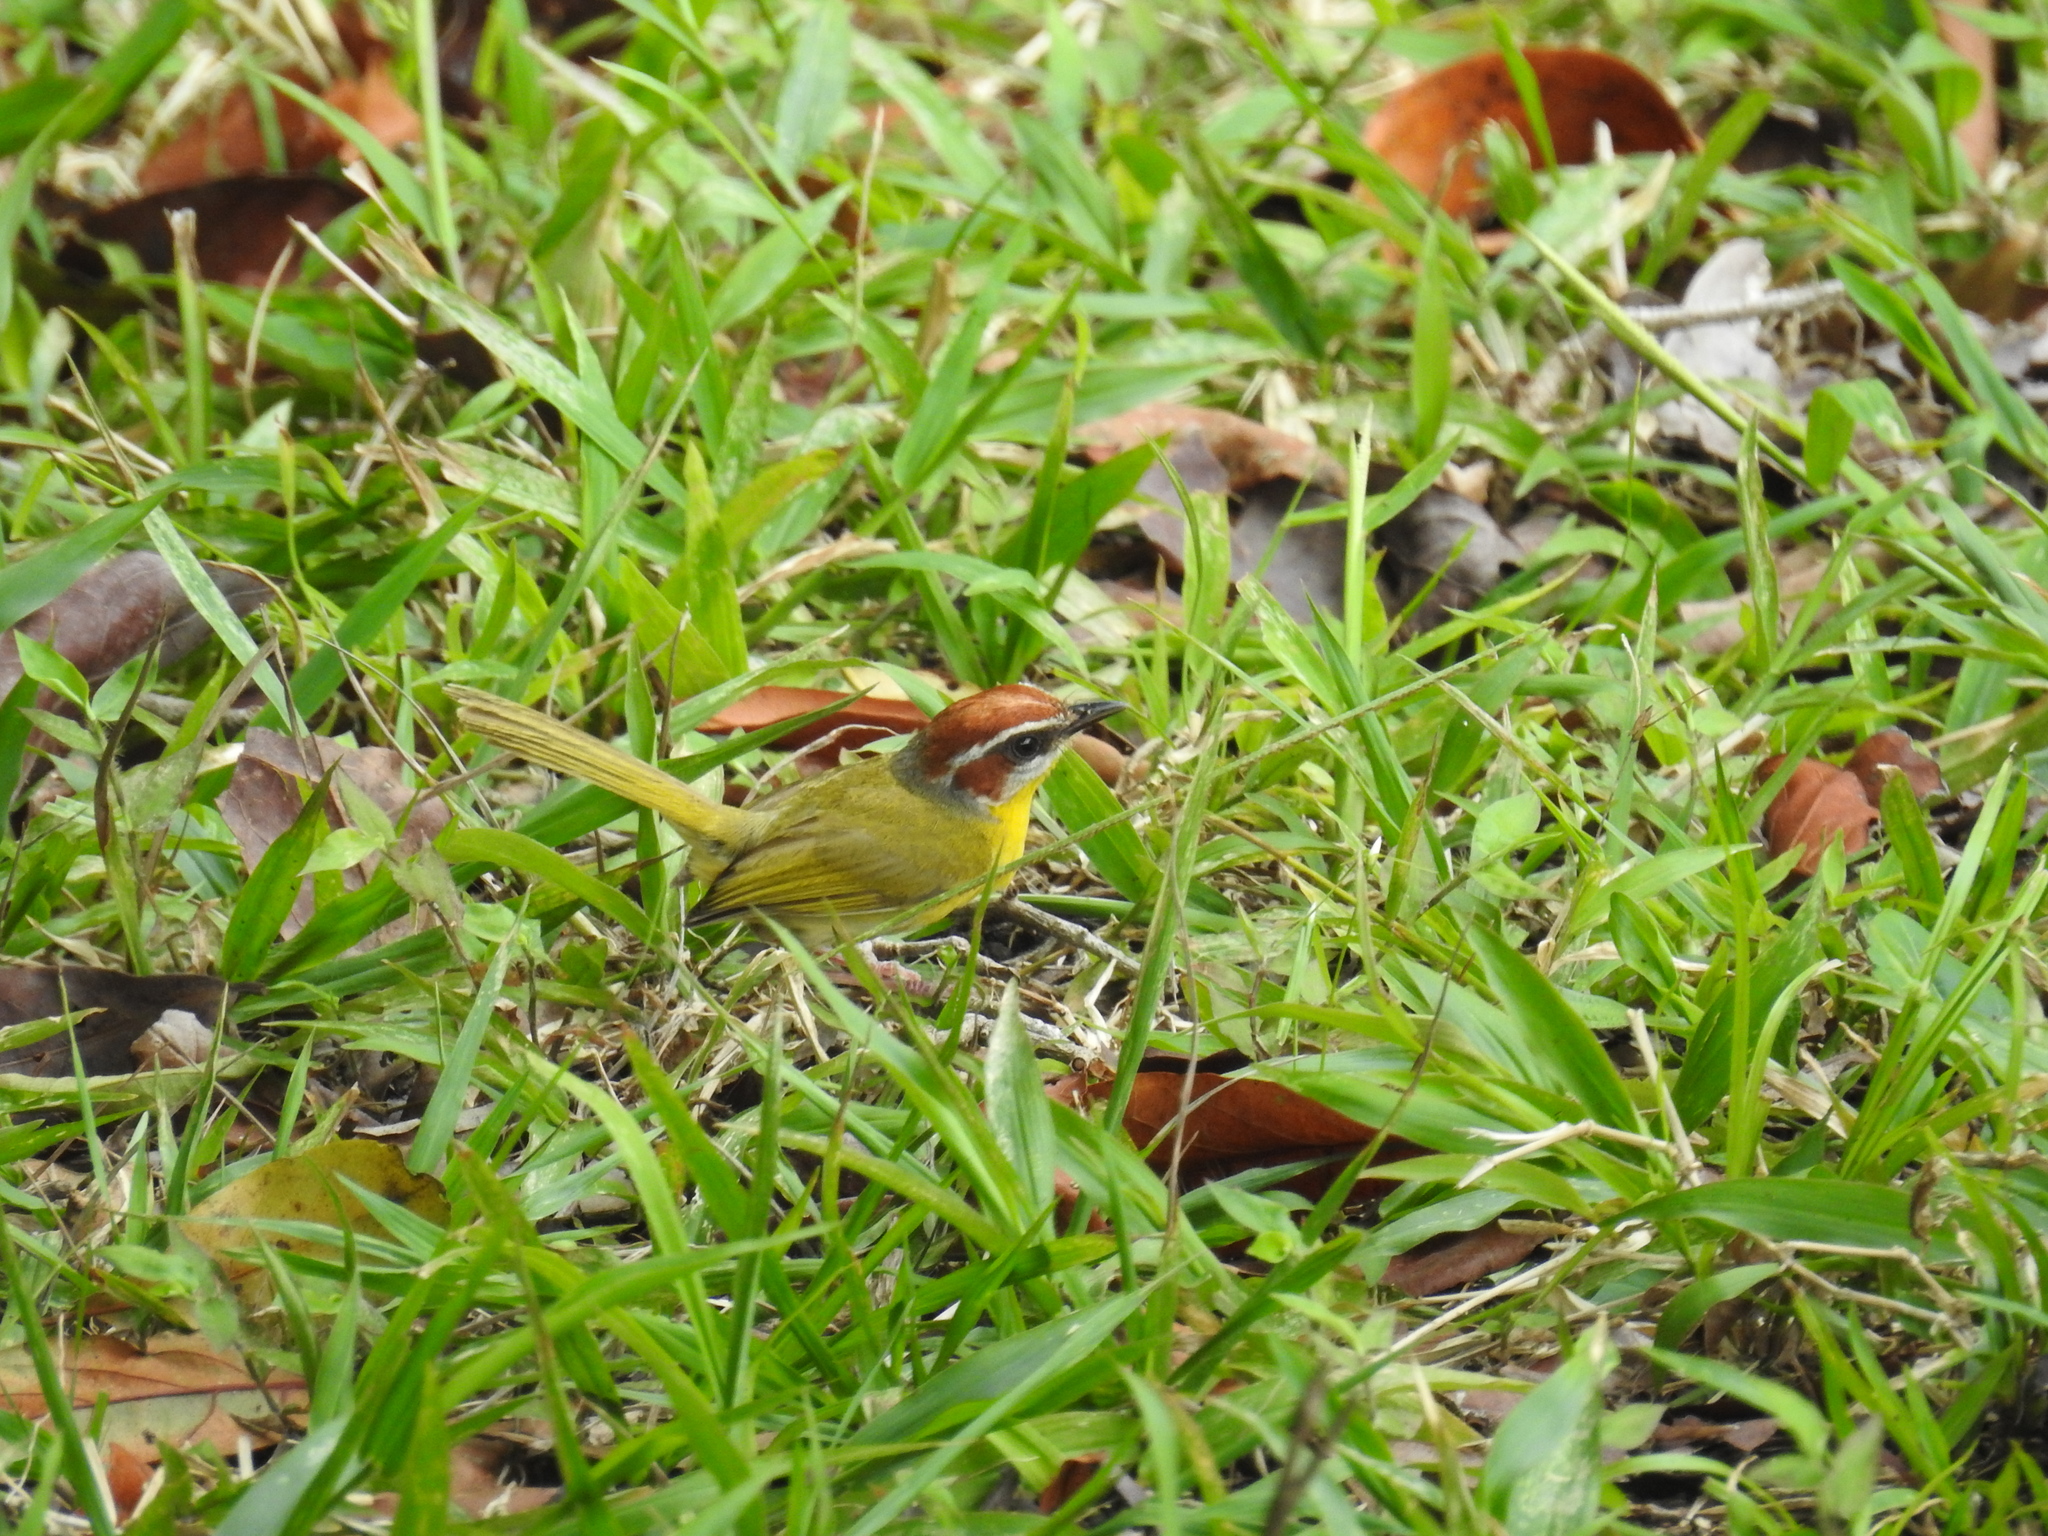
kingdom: Animalia
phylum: Chordata
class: Aves
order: Passeriformes
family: Parulidae
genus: Basileuterus
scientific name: Basileuterus rufifrons
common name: Rufous-capped warbler
